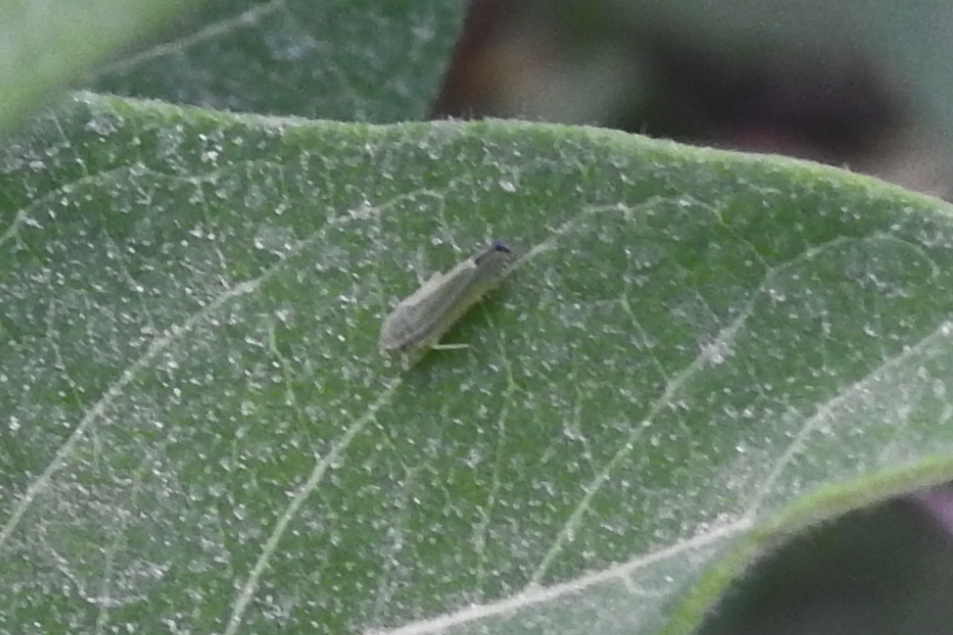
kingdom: Animalia
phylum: Arthropoda
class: Insecta
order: Hemiptera
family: Cicadellidae
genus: Graphocephala
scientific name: Graphocephala versuta
